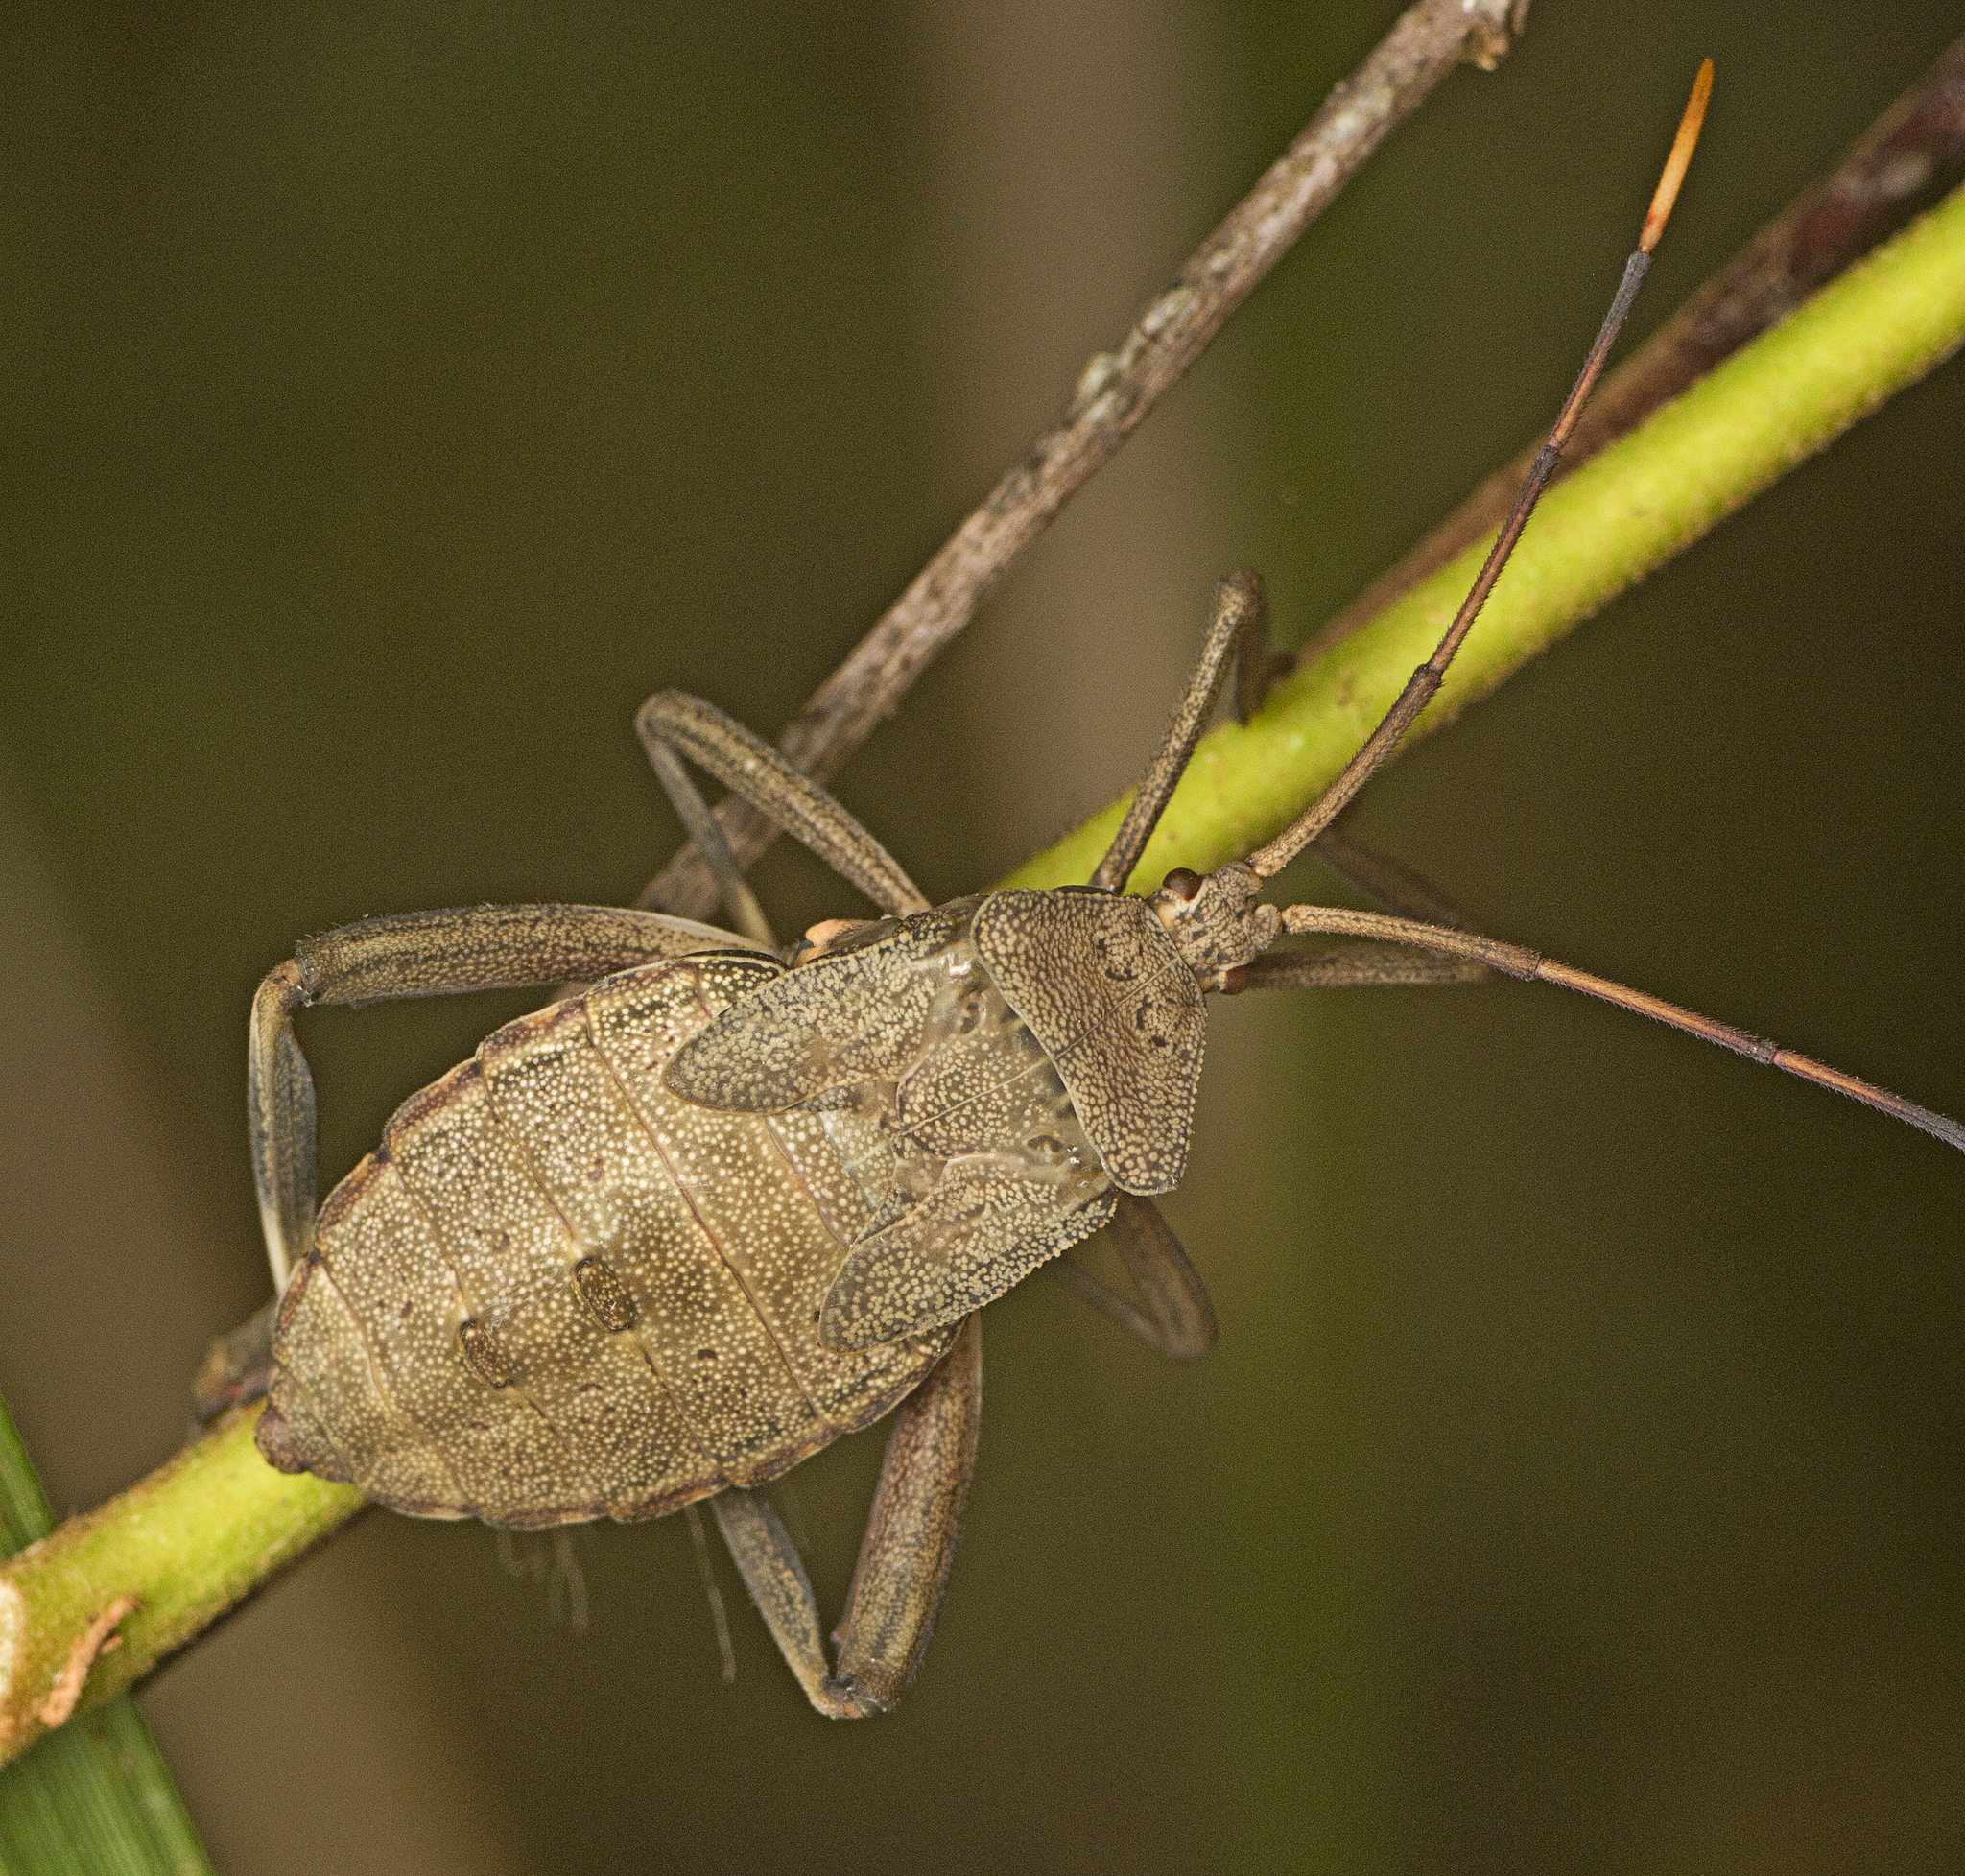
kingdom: Animalia
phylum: Arthropoda
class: Insecta
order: Hemiptera
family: Coreidae
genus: Mictis
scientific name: Mictis caja
